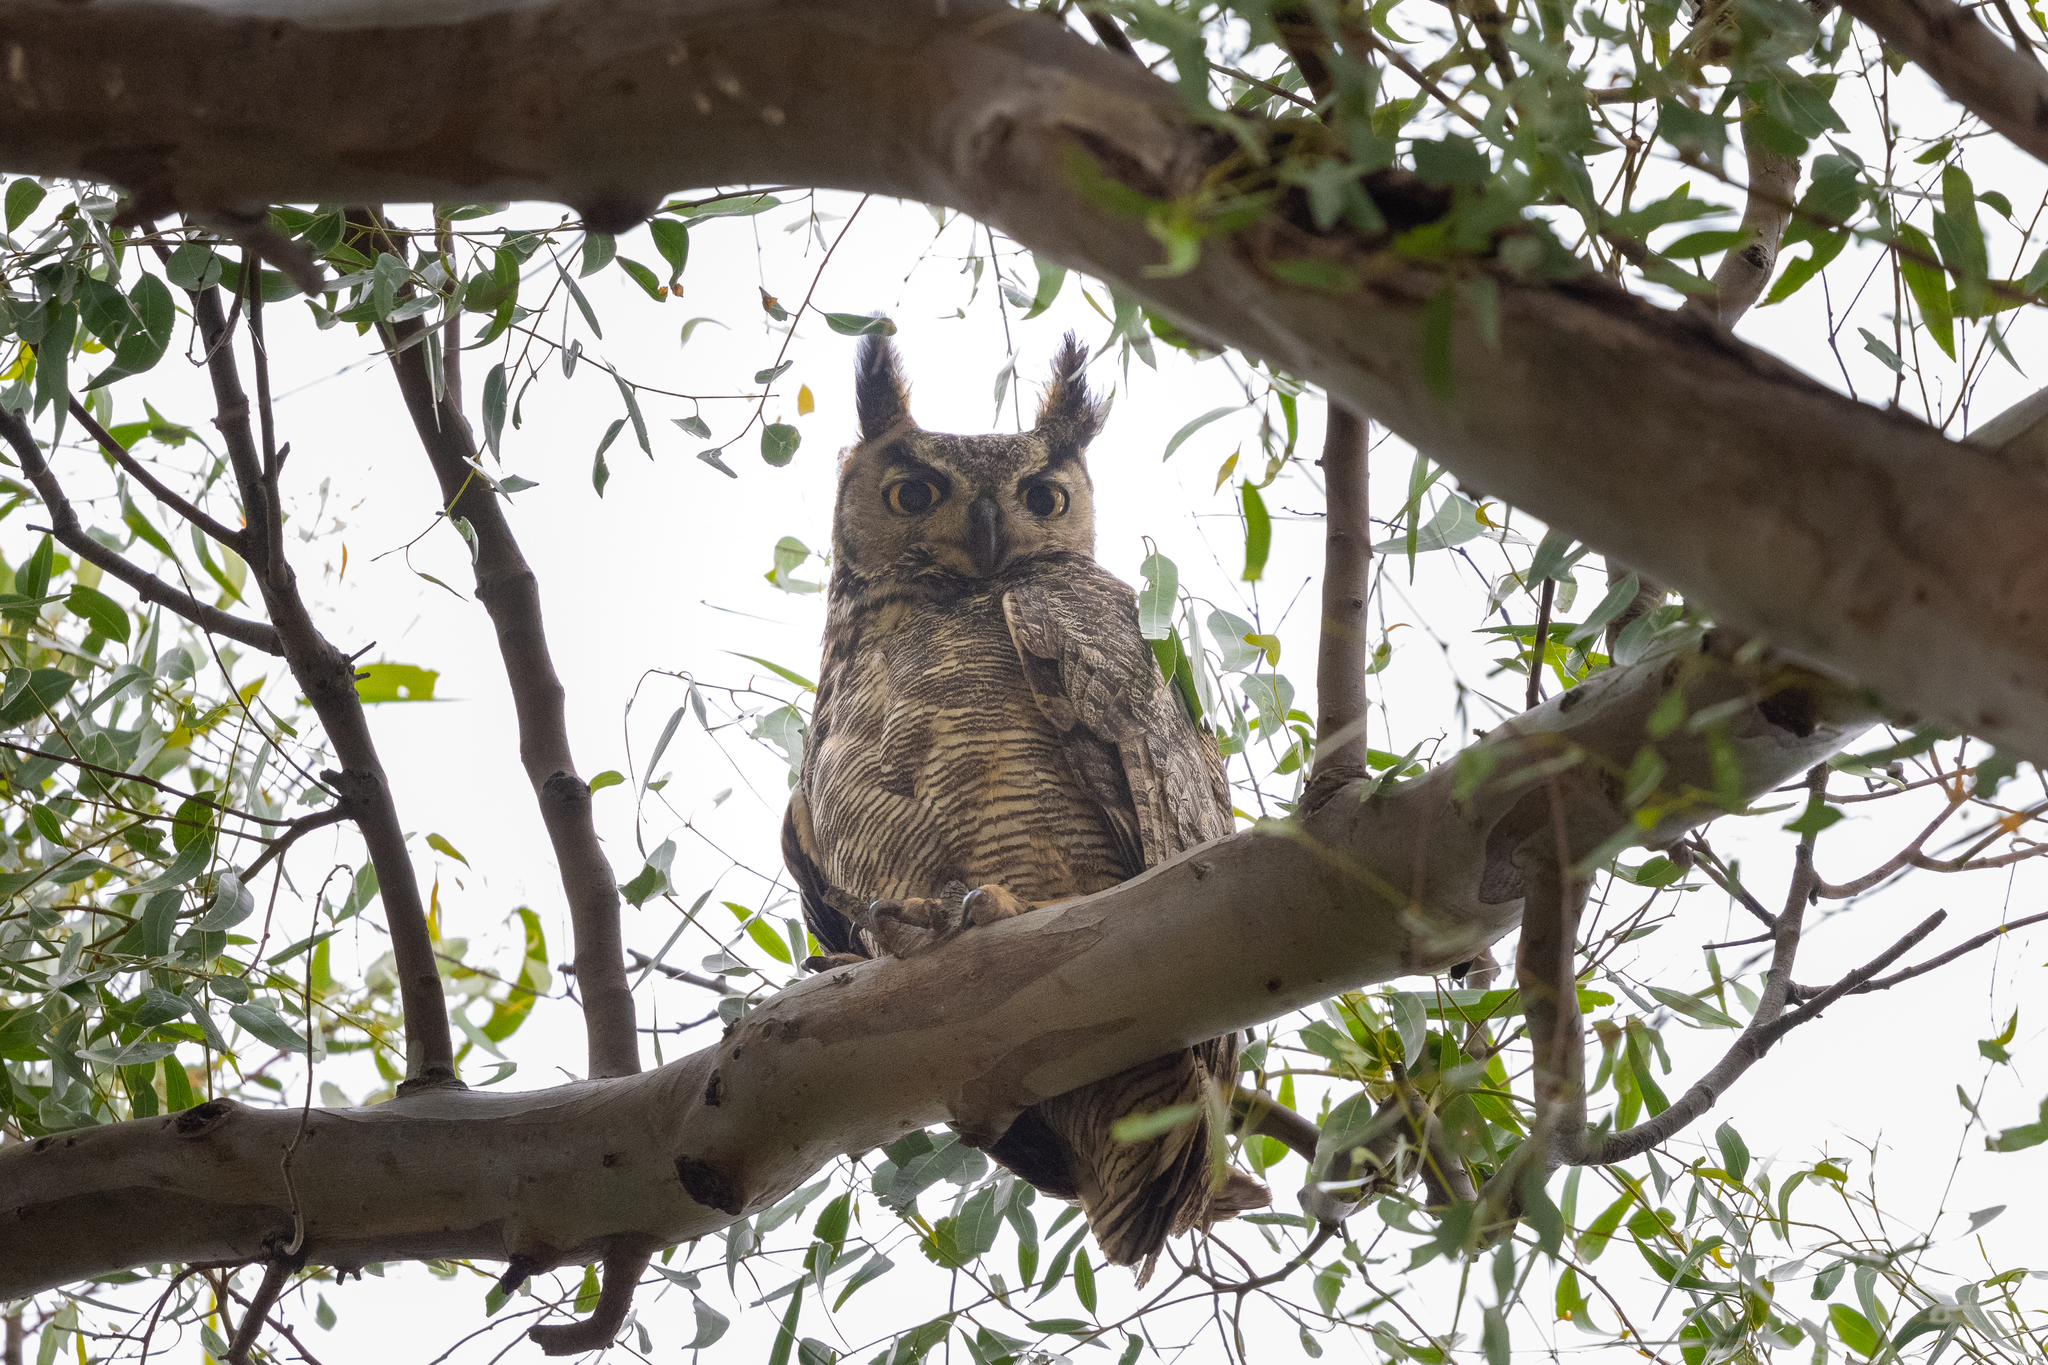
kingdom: Animalia
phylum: Chordata
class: Aves
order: Strigiformes
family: Strigidae
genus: Bubo
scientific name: Bubo virginianus
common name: Great horned owl
